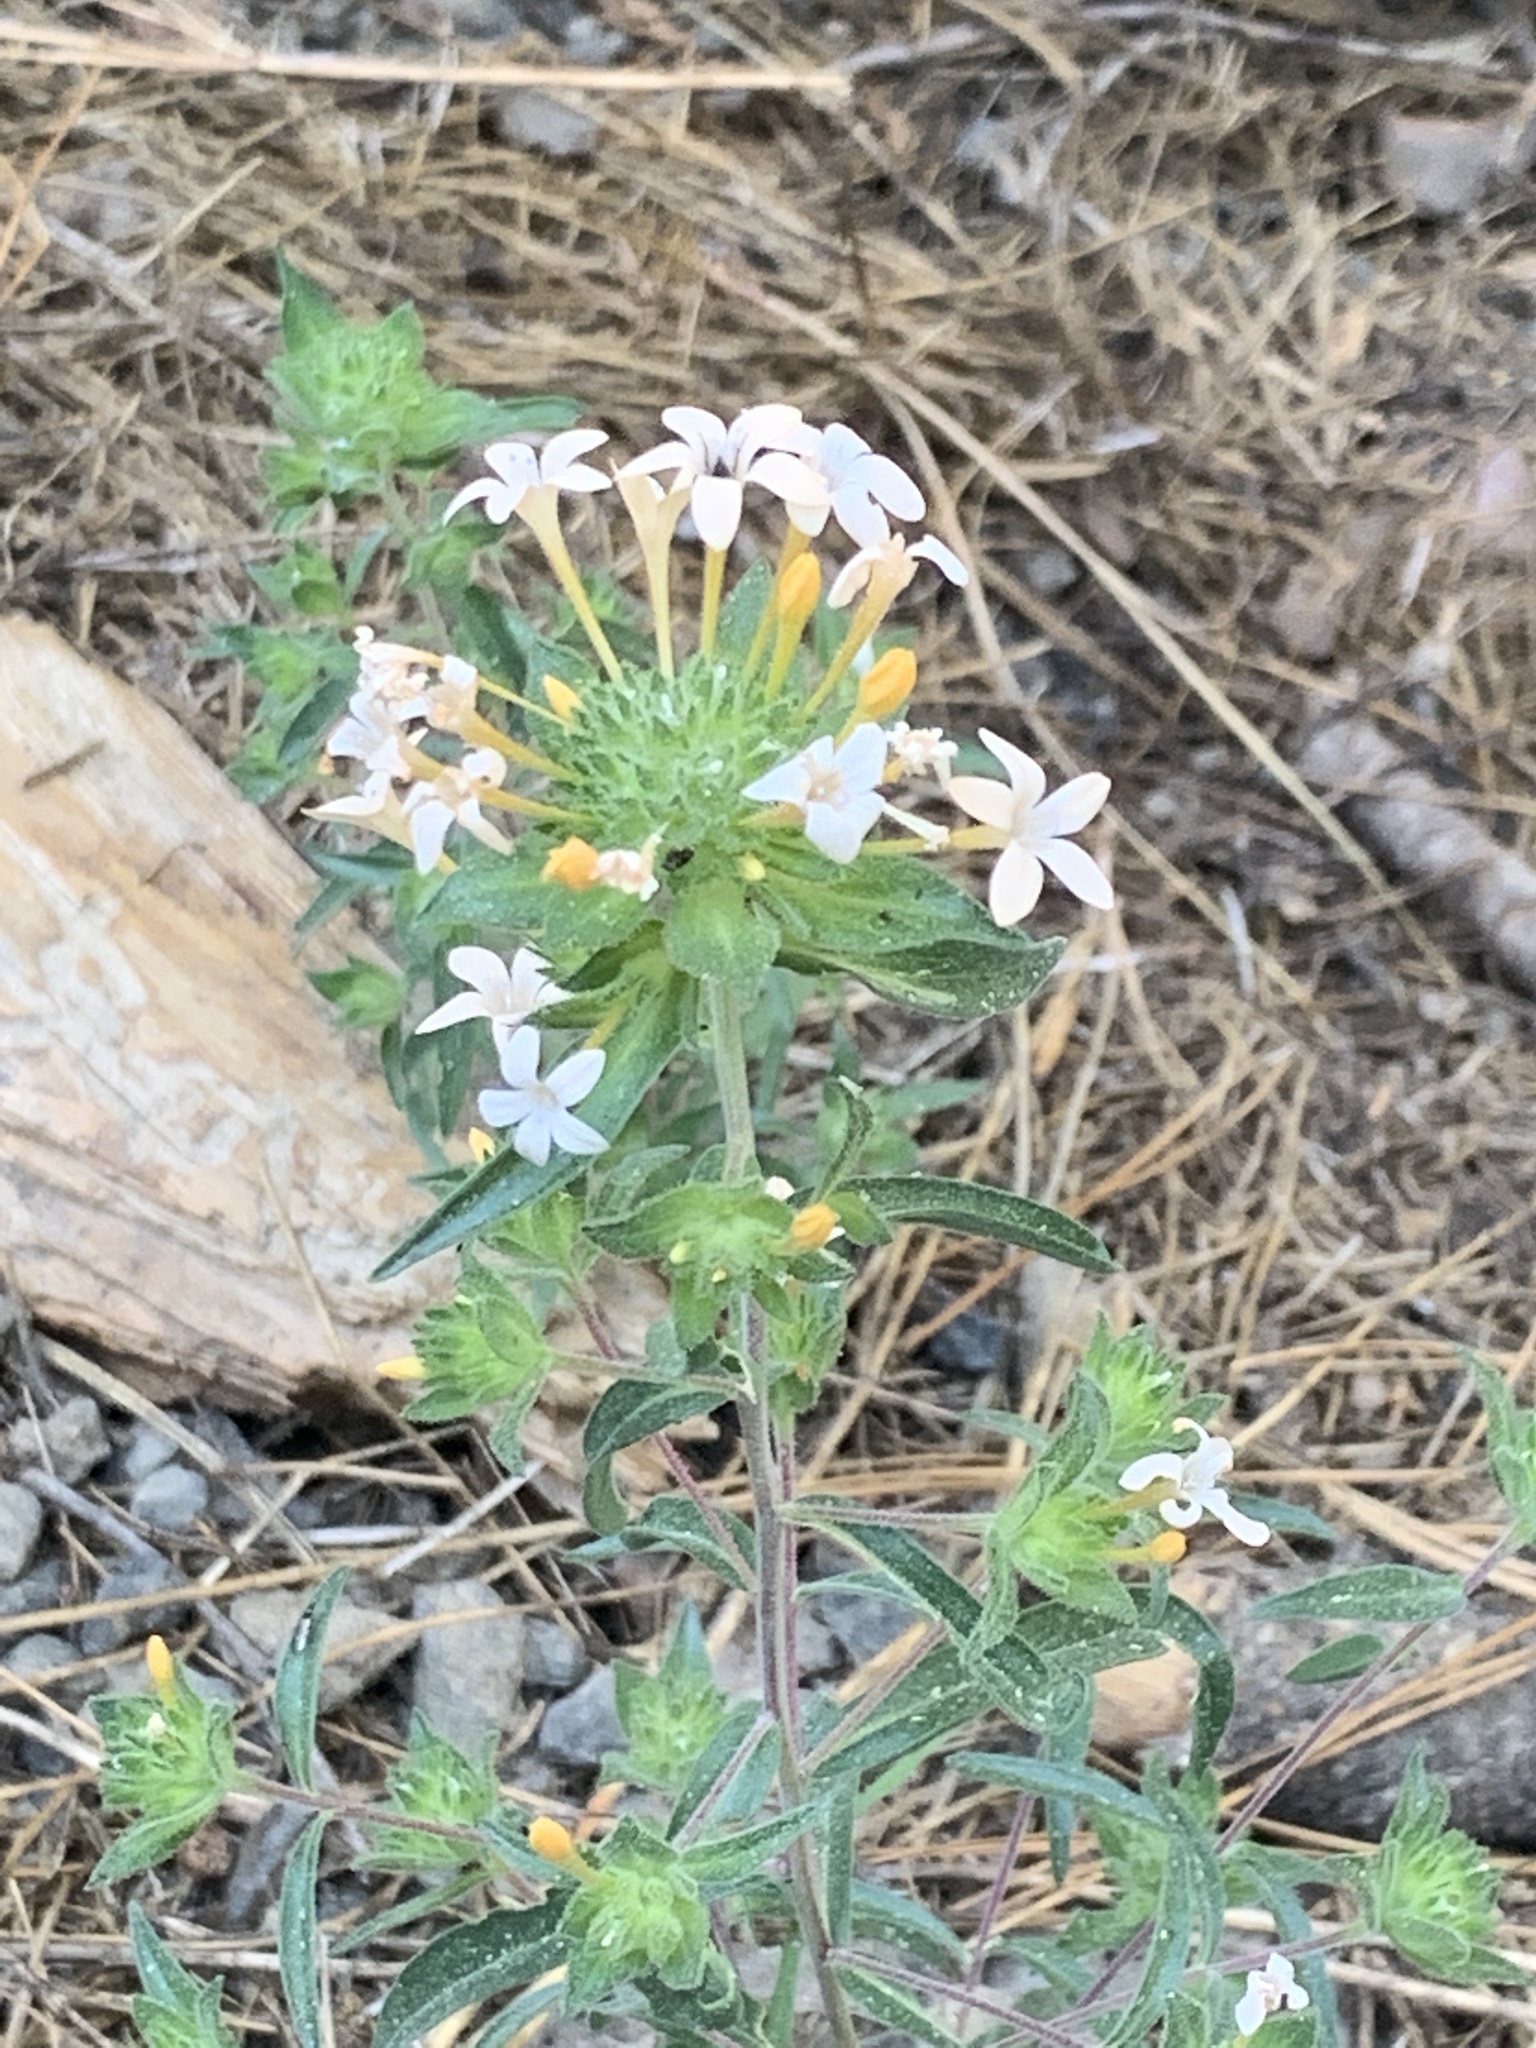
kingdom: Plantae
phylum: Tracheophyta
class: Magnoliopsida
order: Ericales
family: Polemoniaceae
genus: Collomia
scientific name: Collomia grandiflora
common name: California strawflower
